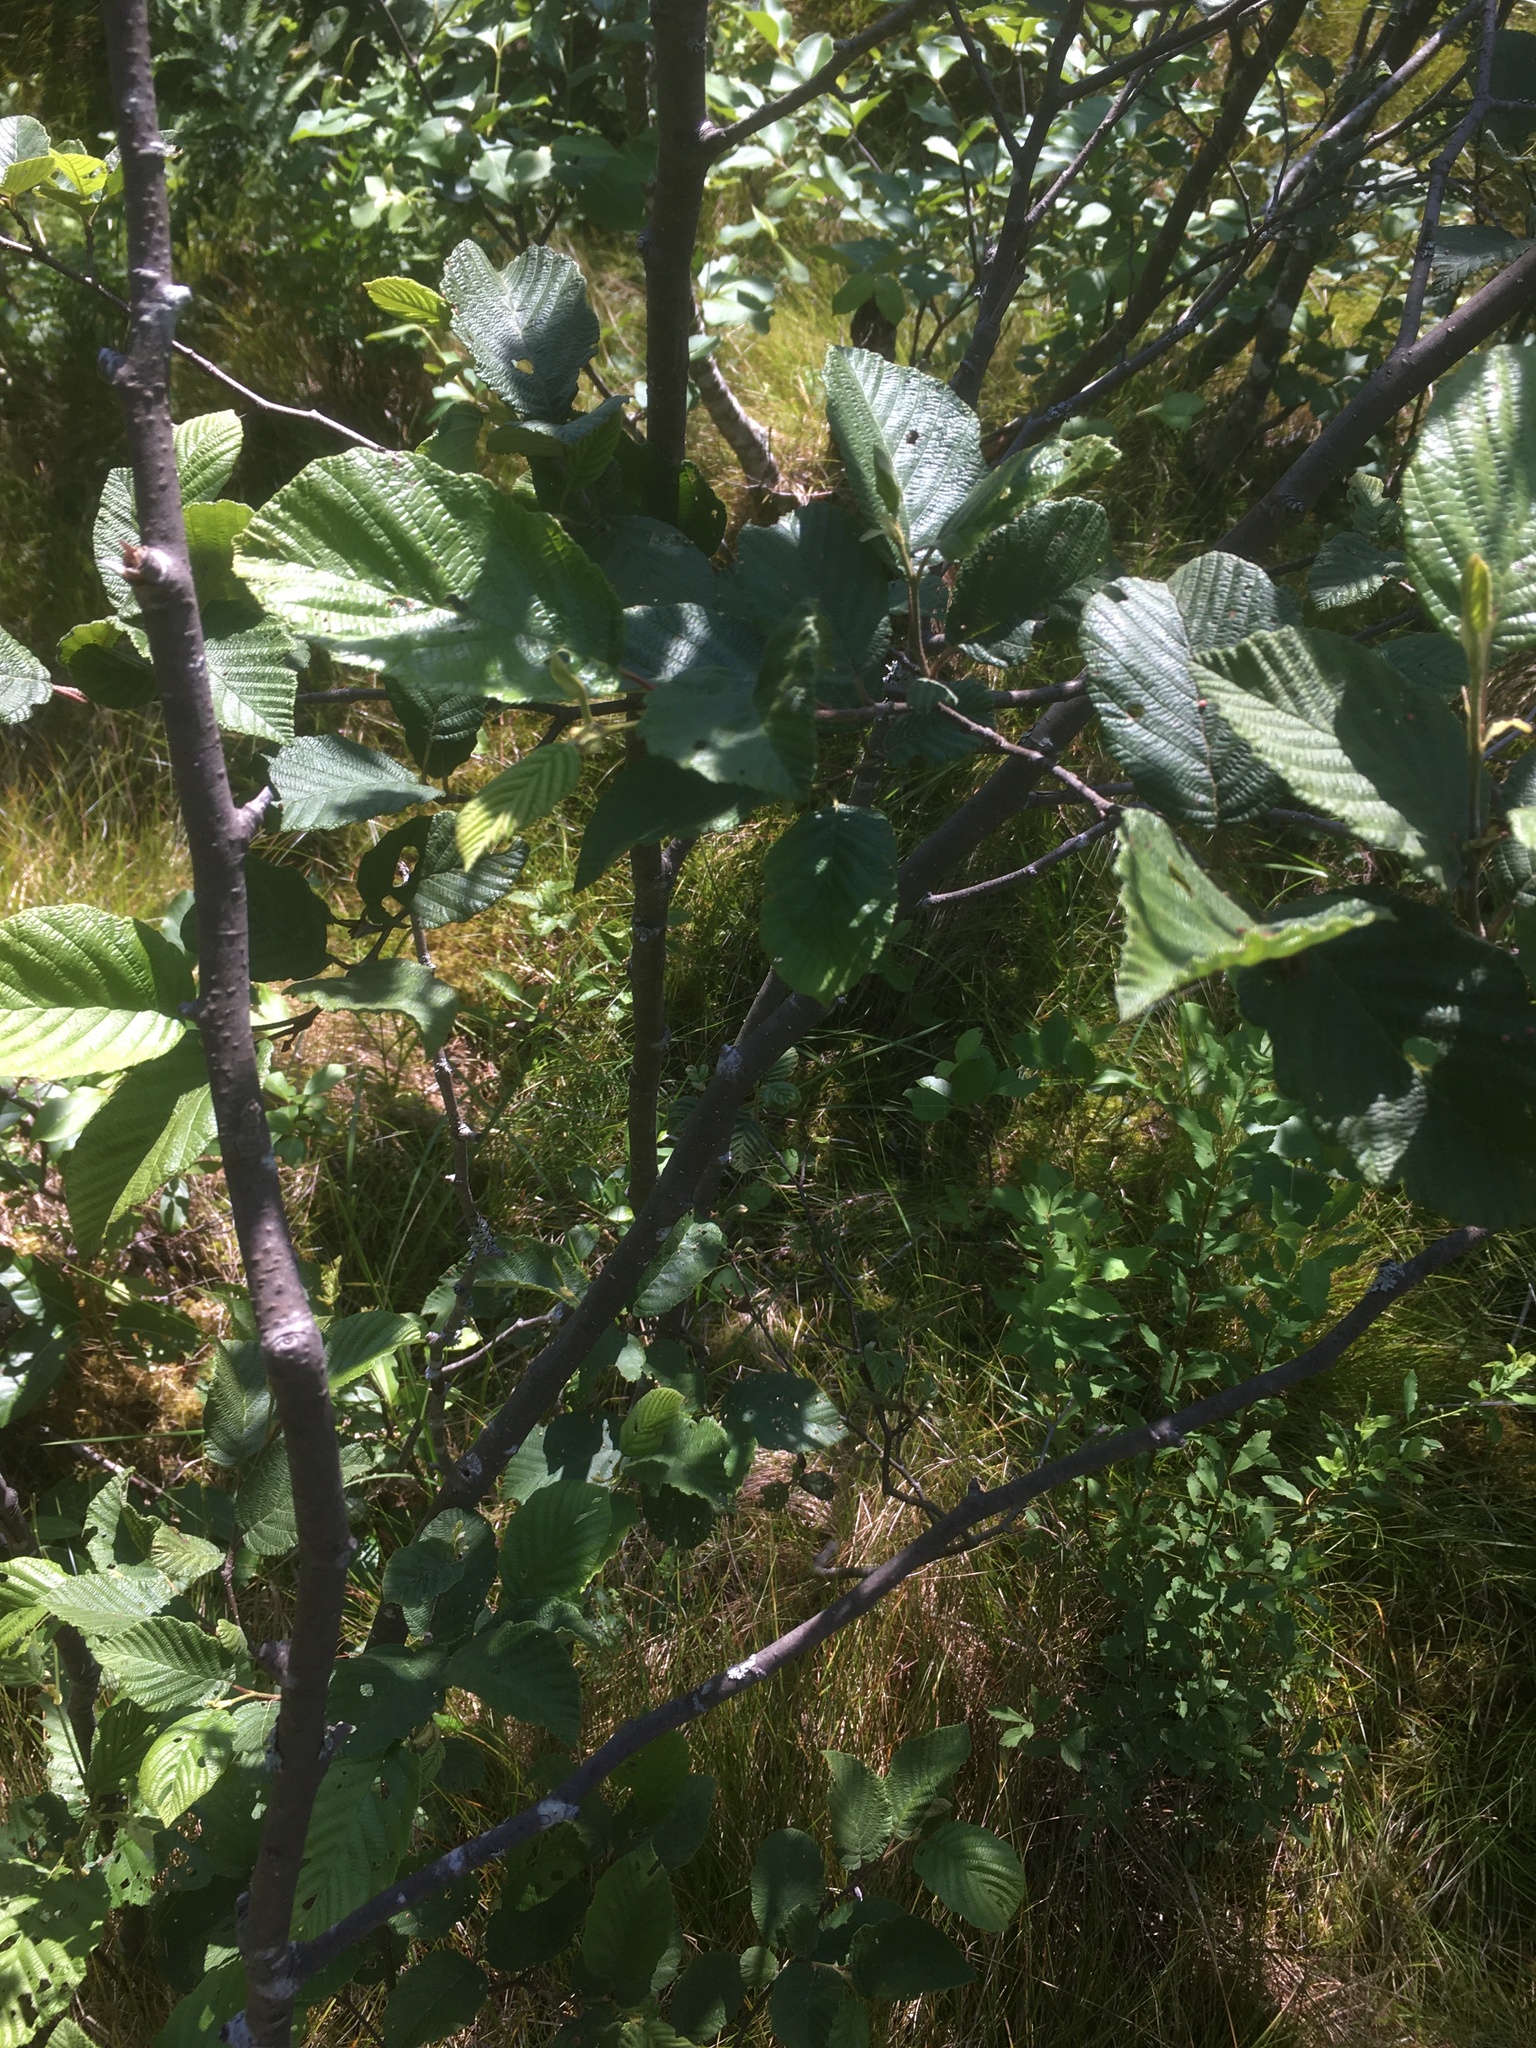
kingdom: Plantae
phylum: Tracheophyta
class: Magnoliopsida
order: Fagales
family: Betulaceae
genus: Alnus
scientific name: Alnus incana
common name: Grey alder
